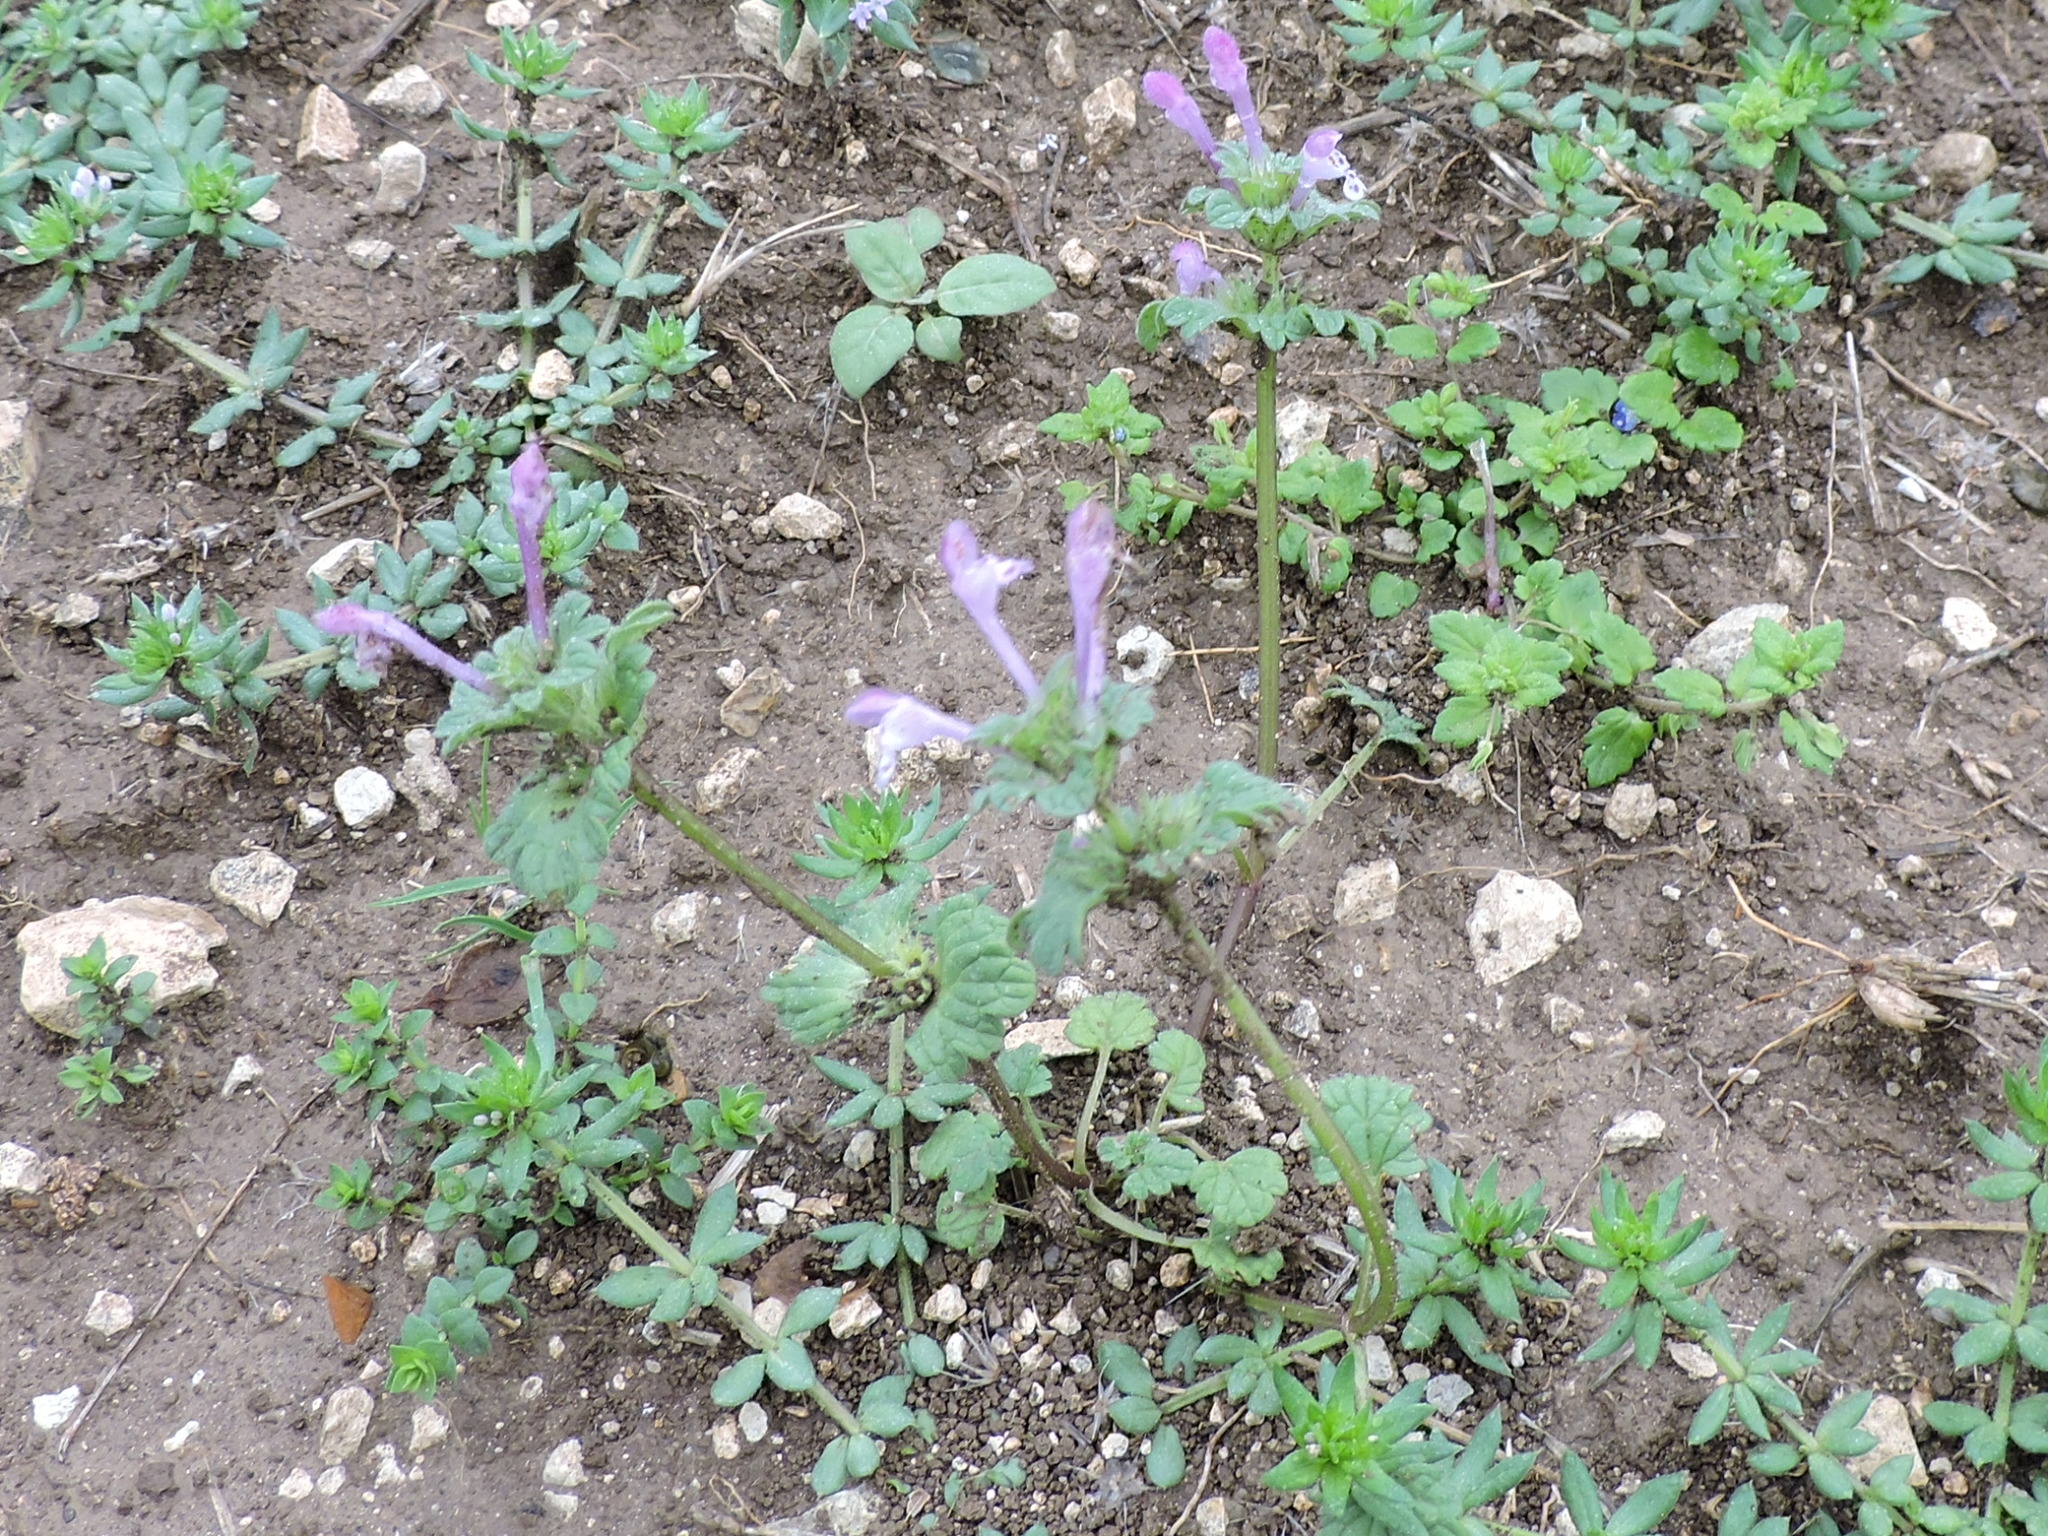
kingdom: Plantae
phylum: Tracheophyta
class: Magnoliopsida
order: Lamiales
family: Lamiaceae
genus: Lamium
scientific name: Lamium amplexicaule
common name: Henbit dead-nettle
